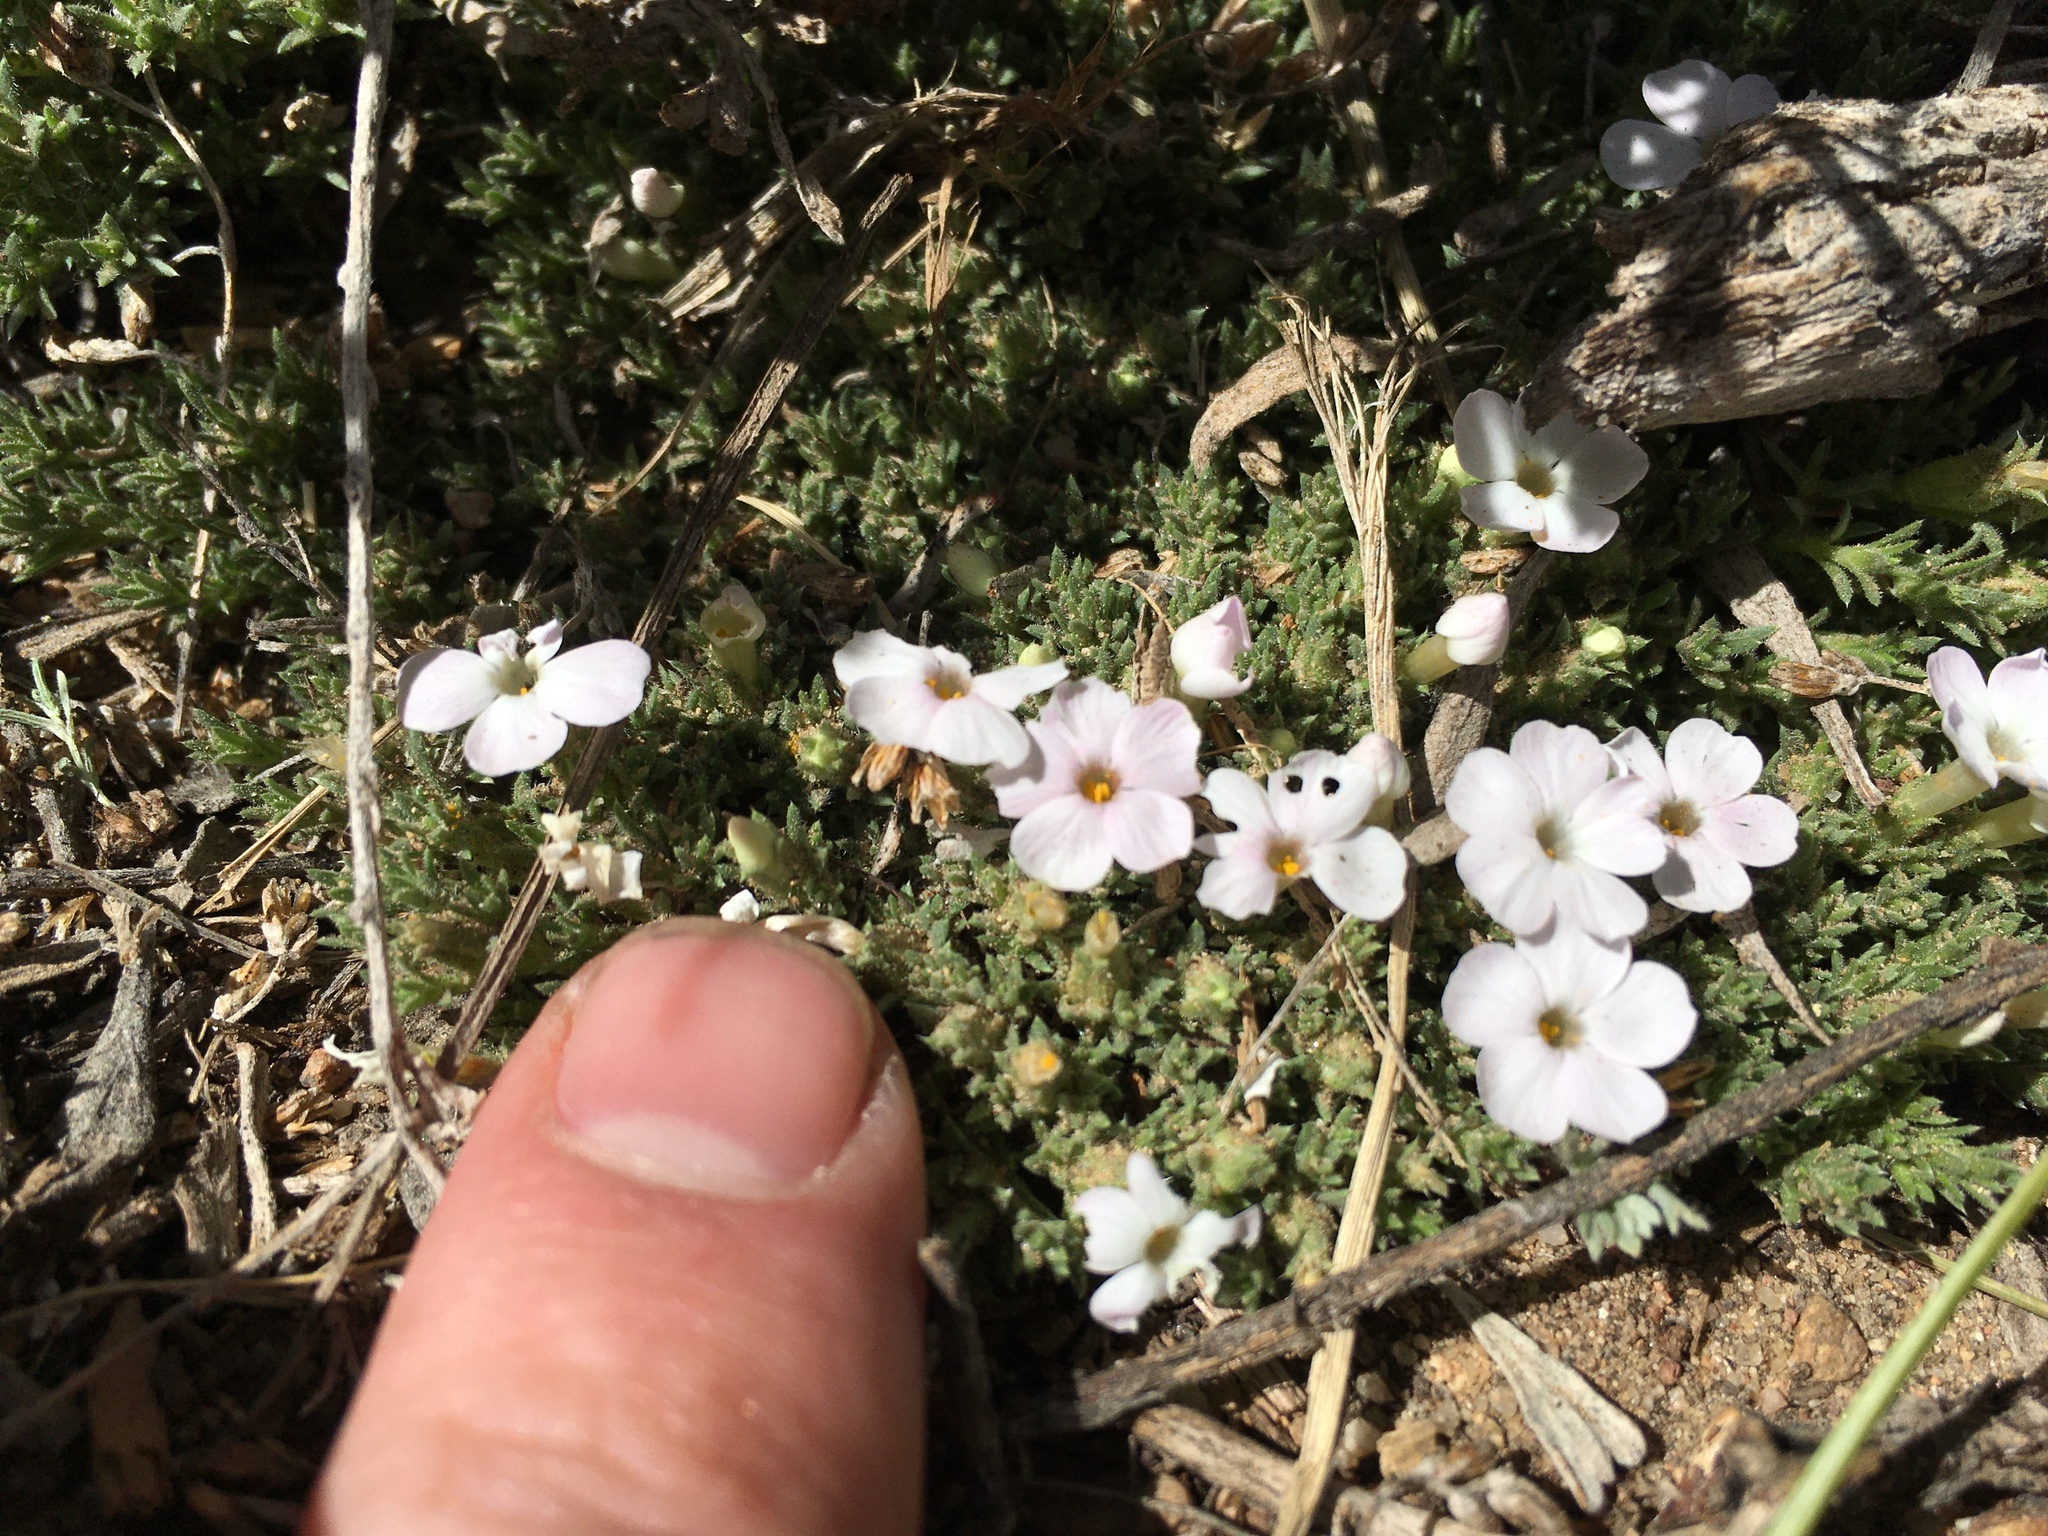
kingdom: Plantae
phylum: Tracheophyta
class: Magnoliopsida
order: Ericales
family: Polemoniaceae
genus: Phlox
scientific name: Phlox condensata
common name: Compact phlox
